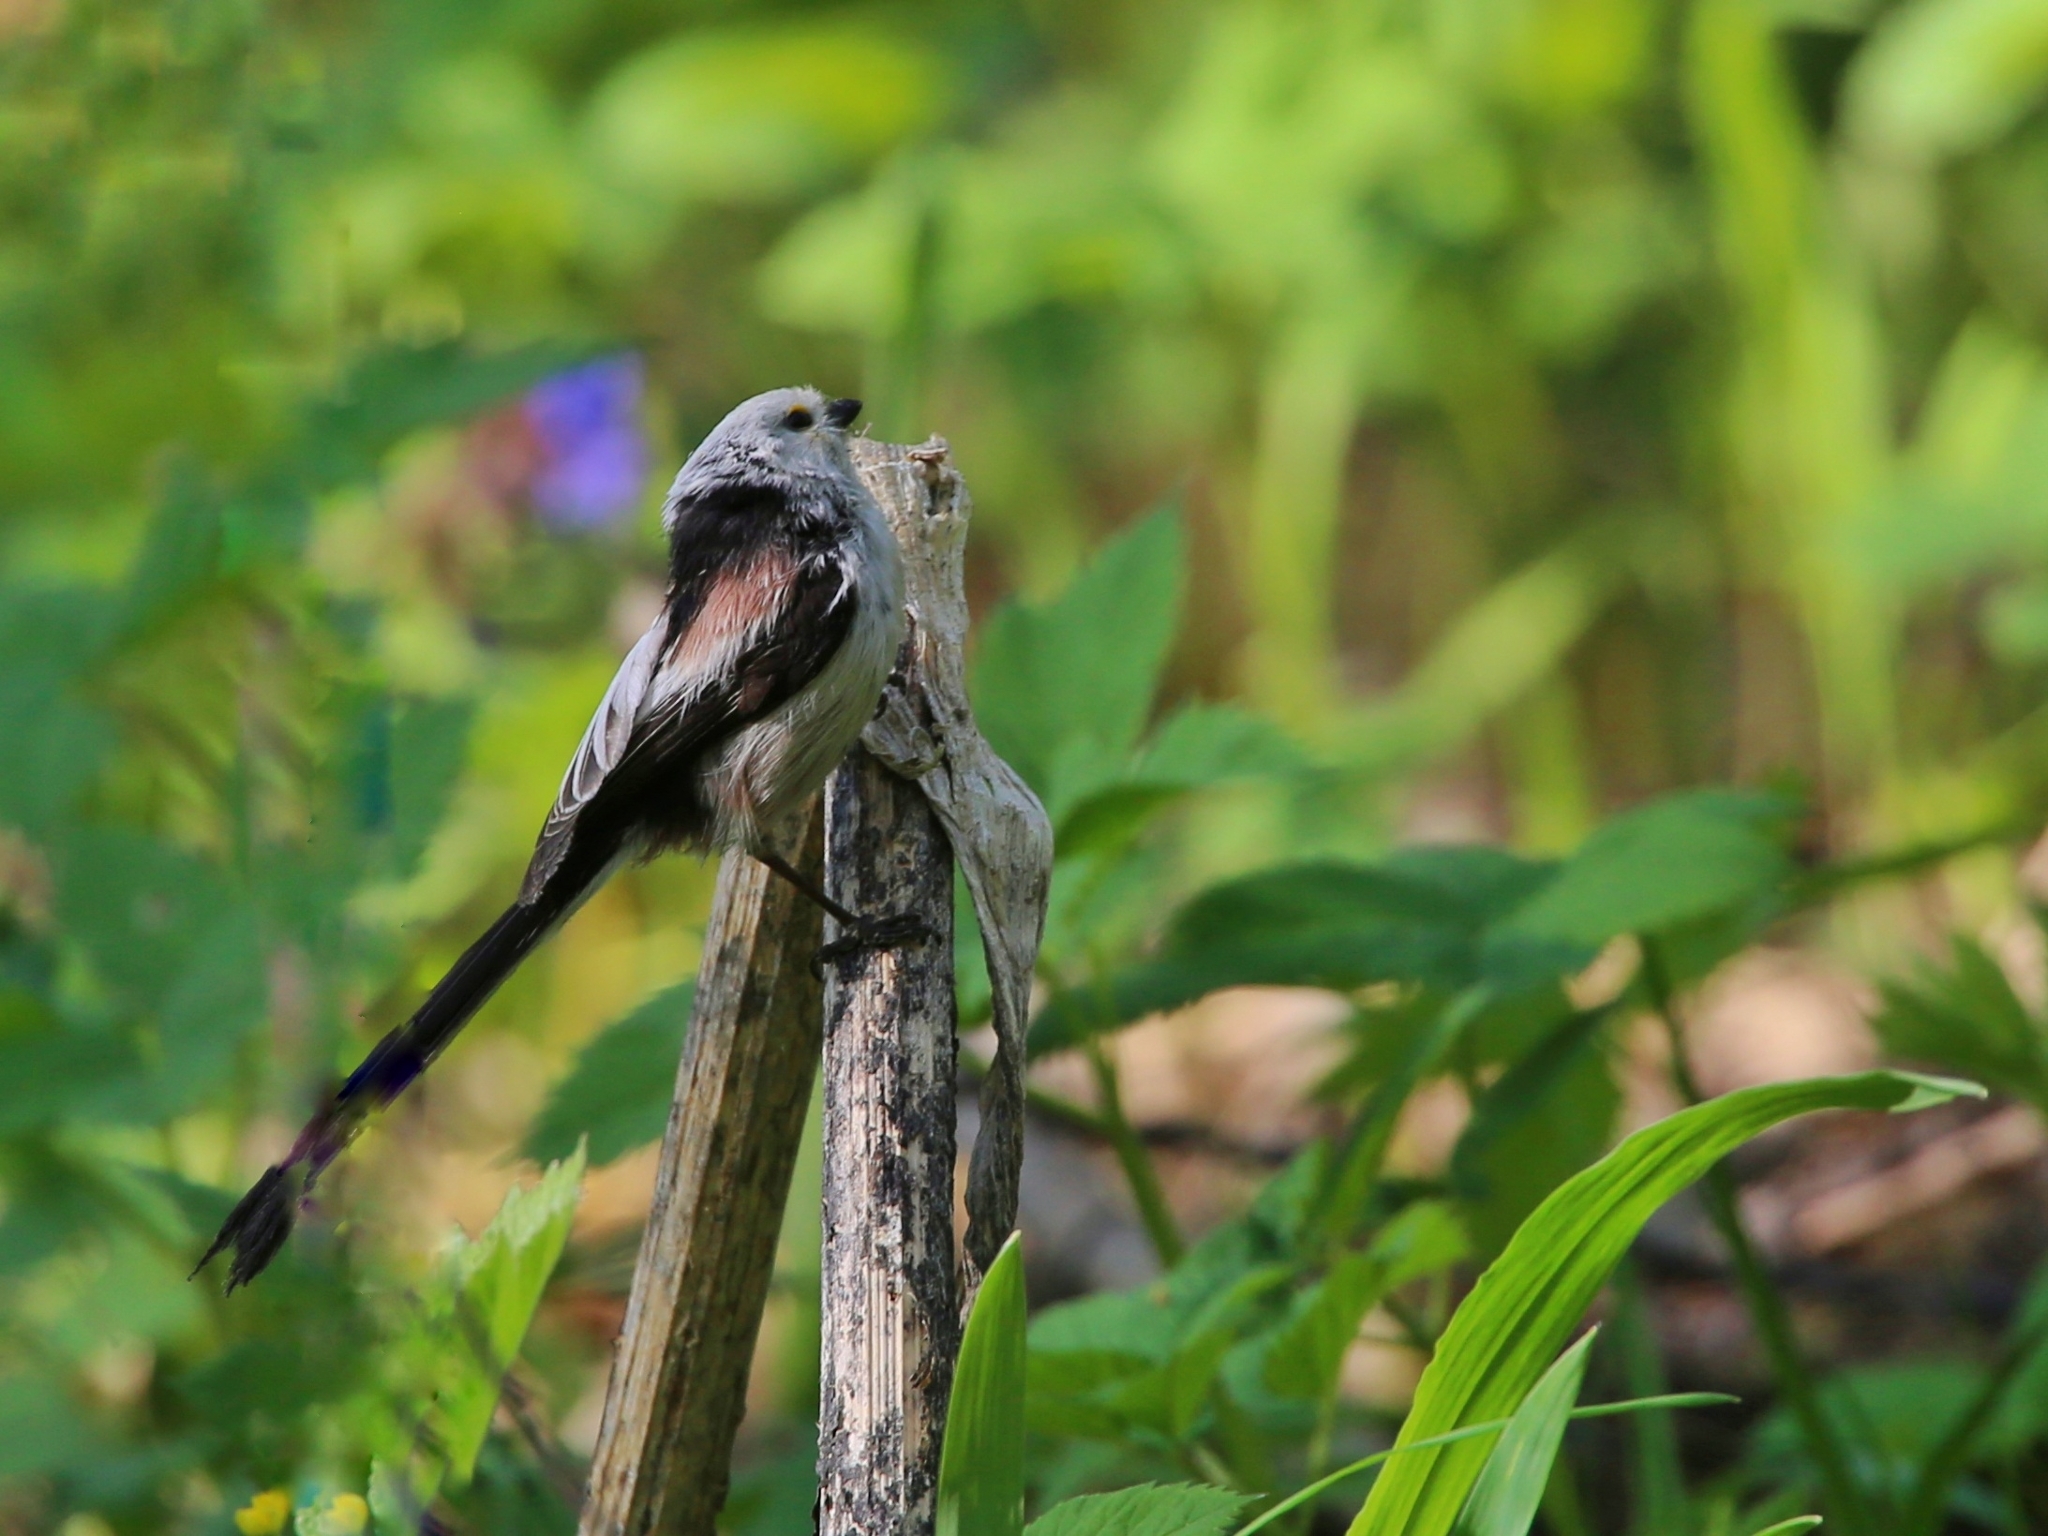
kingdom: Animalia
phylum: Chordata
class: Aves
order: Passeriformes
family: Aegithalidae
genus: Aegithalos
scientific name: Aegithalos caudatus
